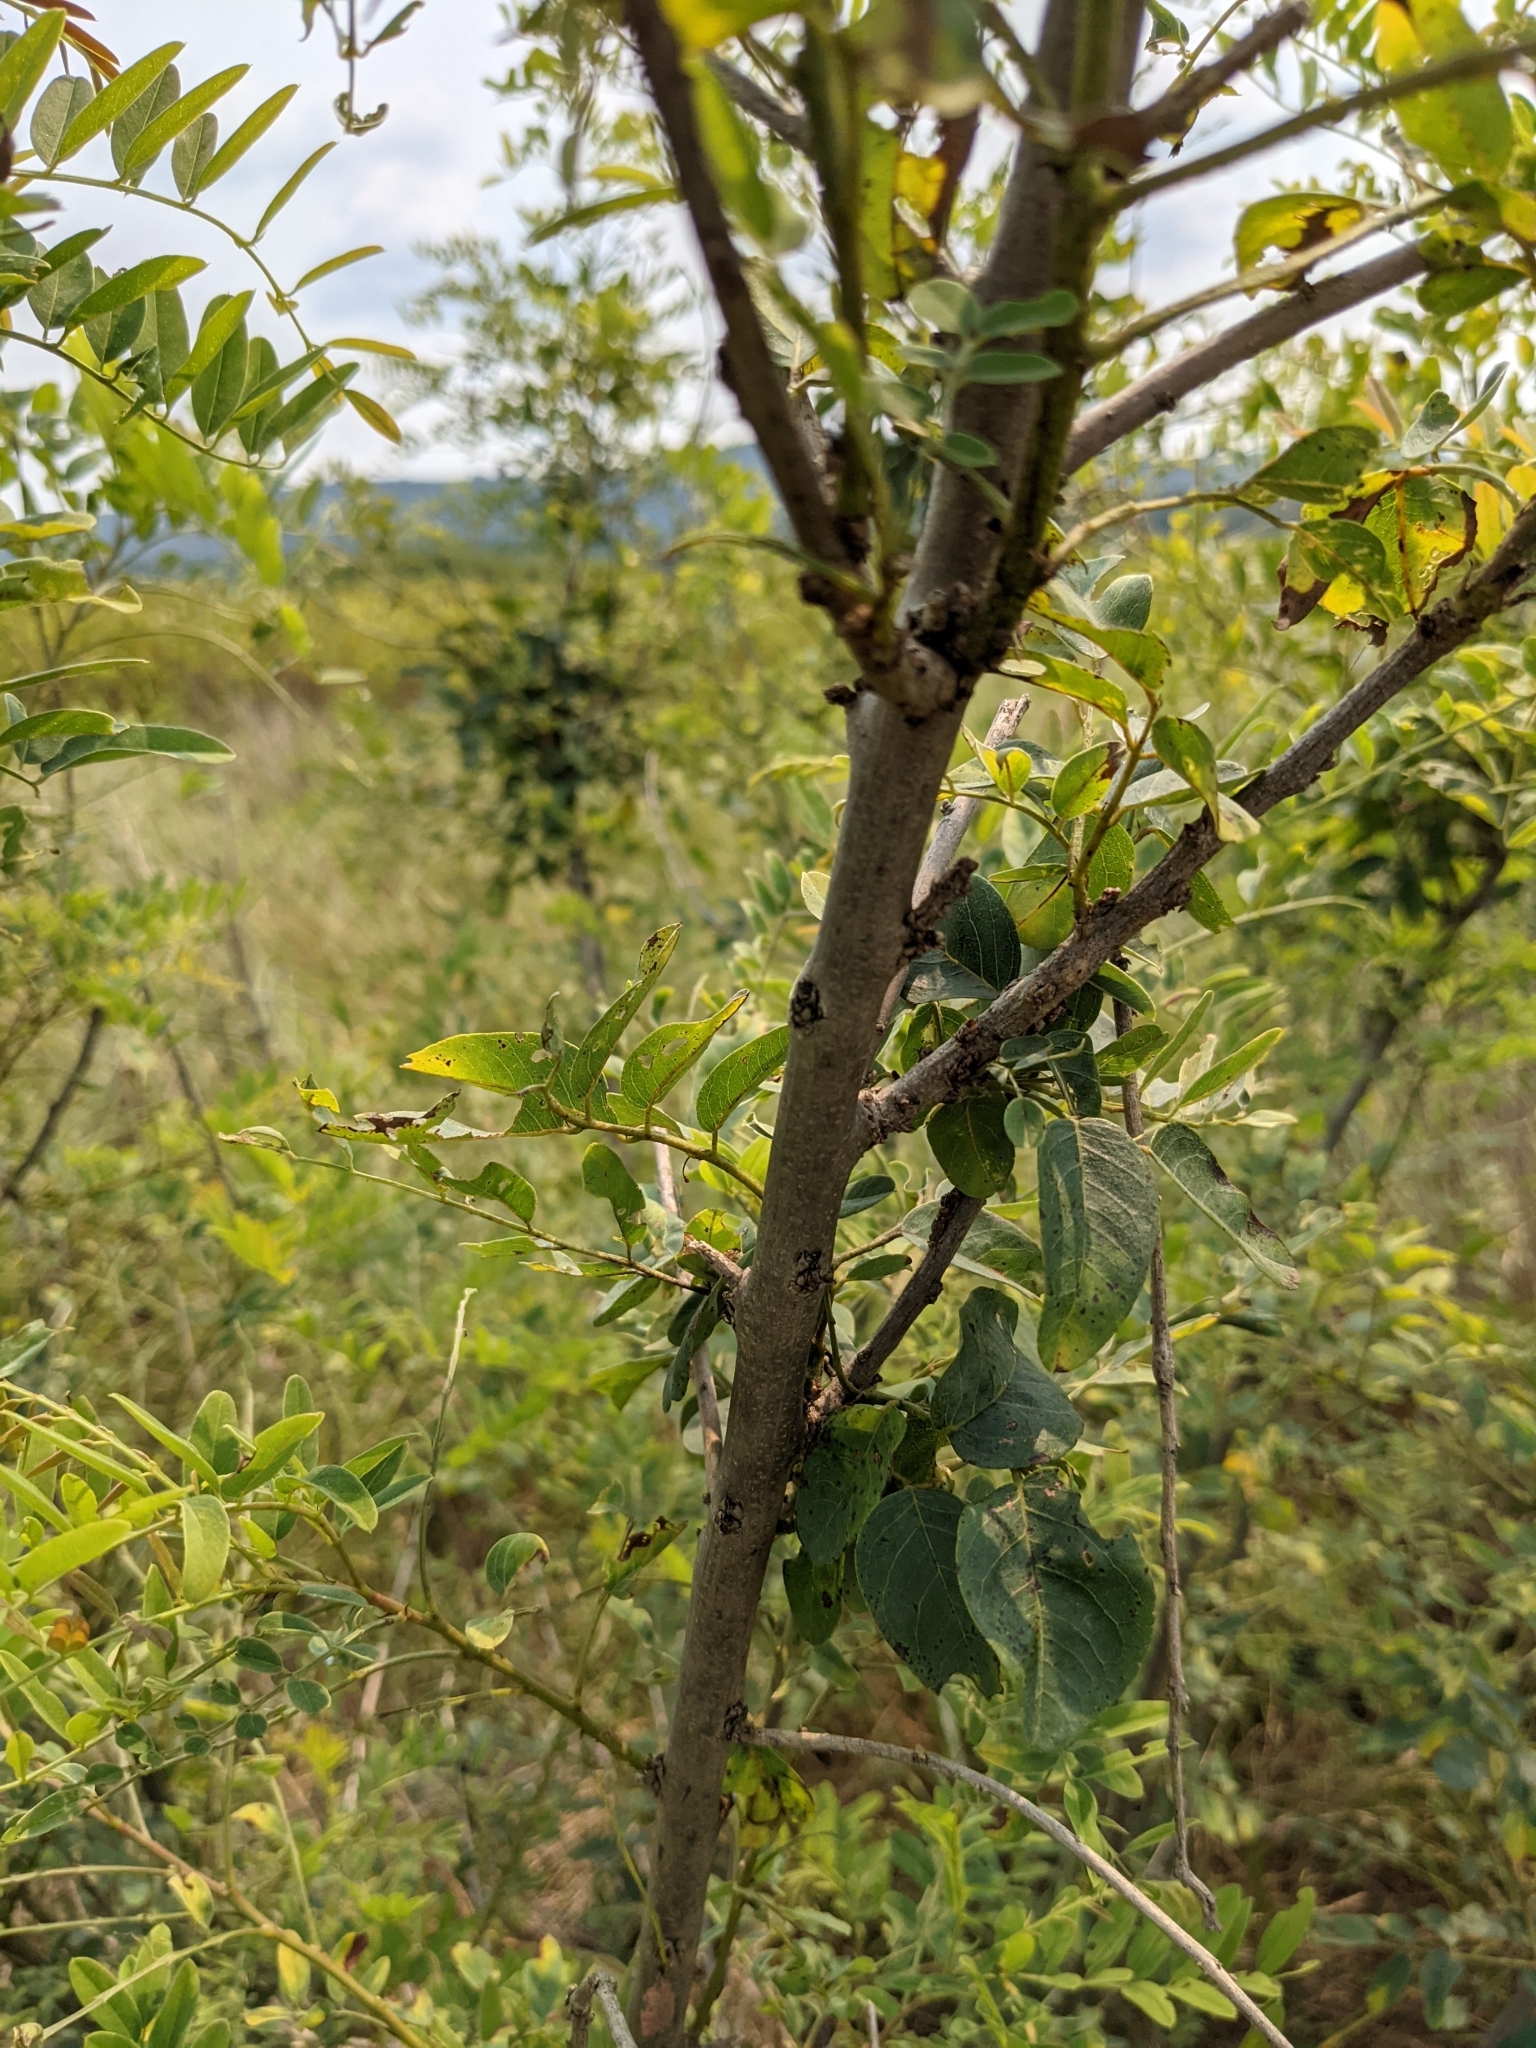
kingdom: Plantae
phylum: Tracheophyta
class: Magnoliopsida
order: Fabales
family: Fabaceae
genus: Amorpha
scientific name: Amorpha fruticosa
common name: False indigo
